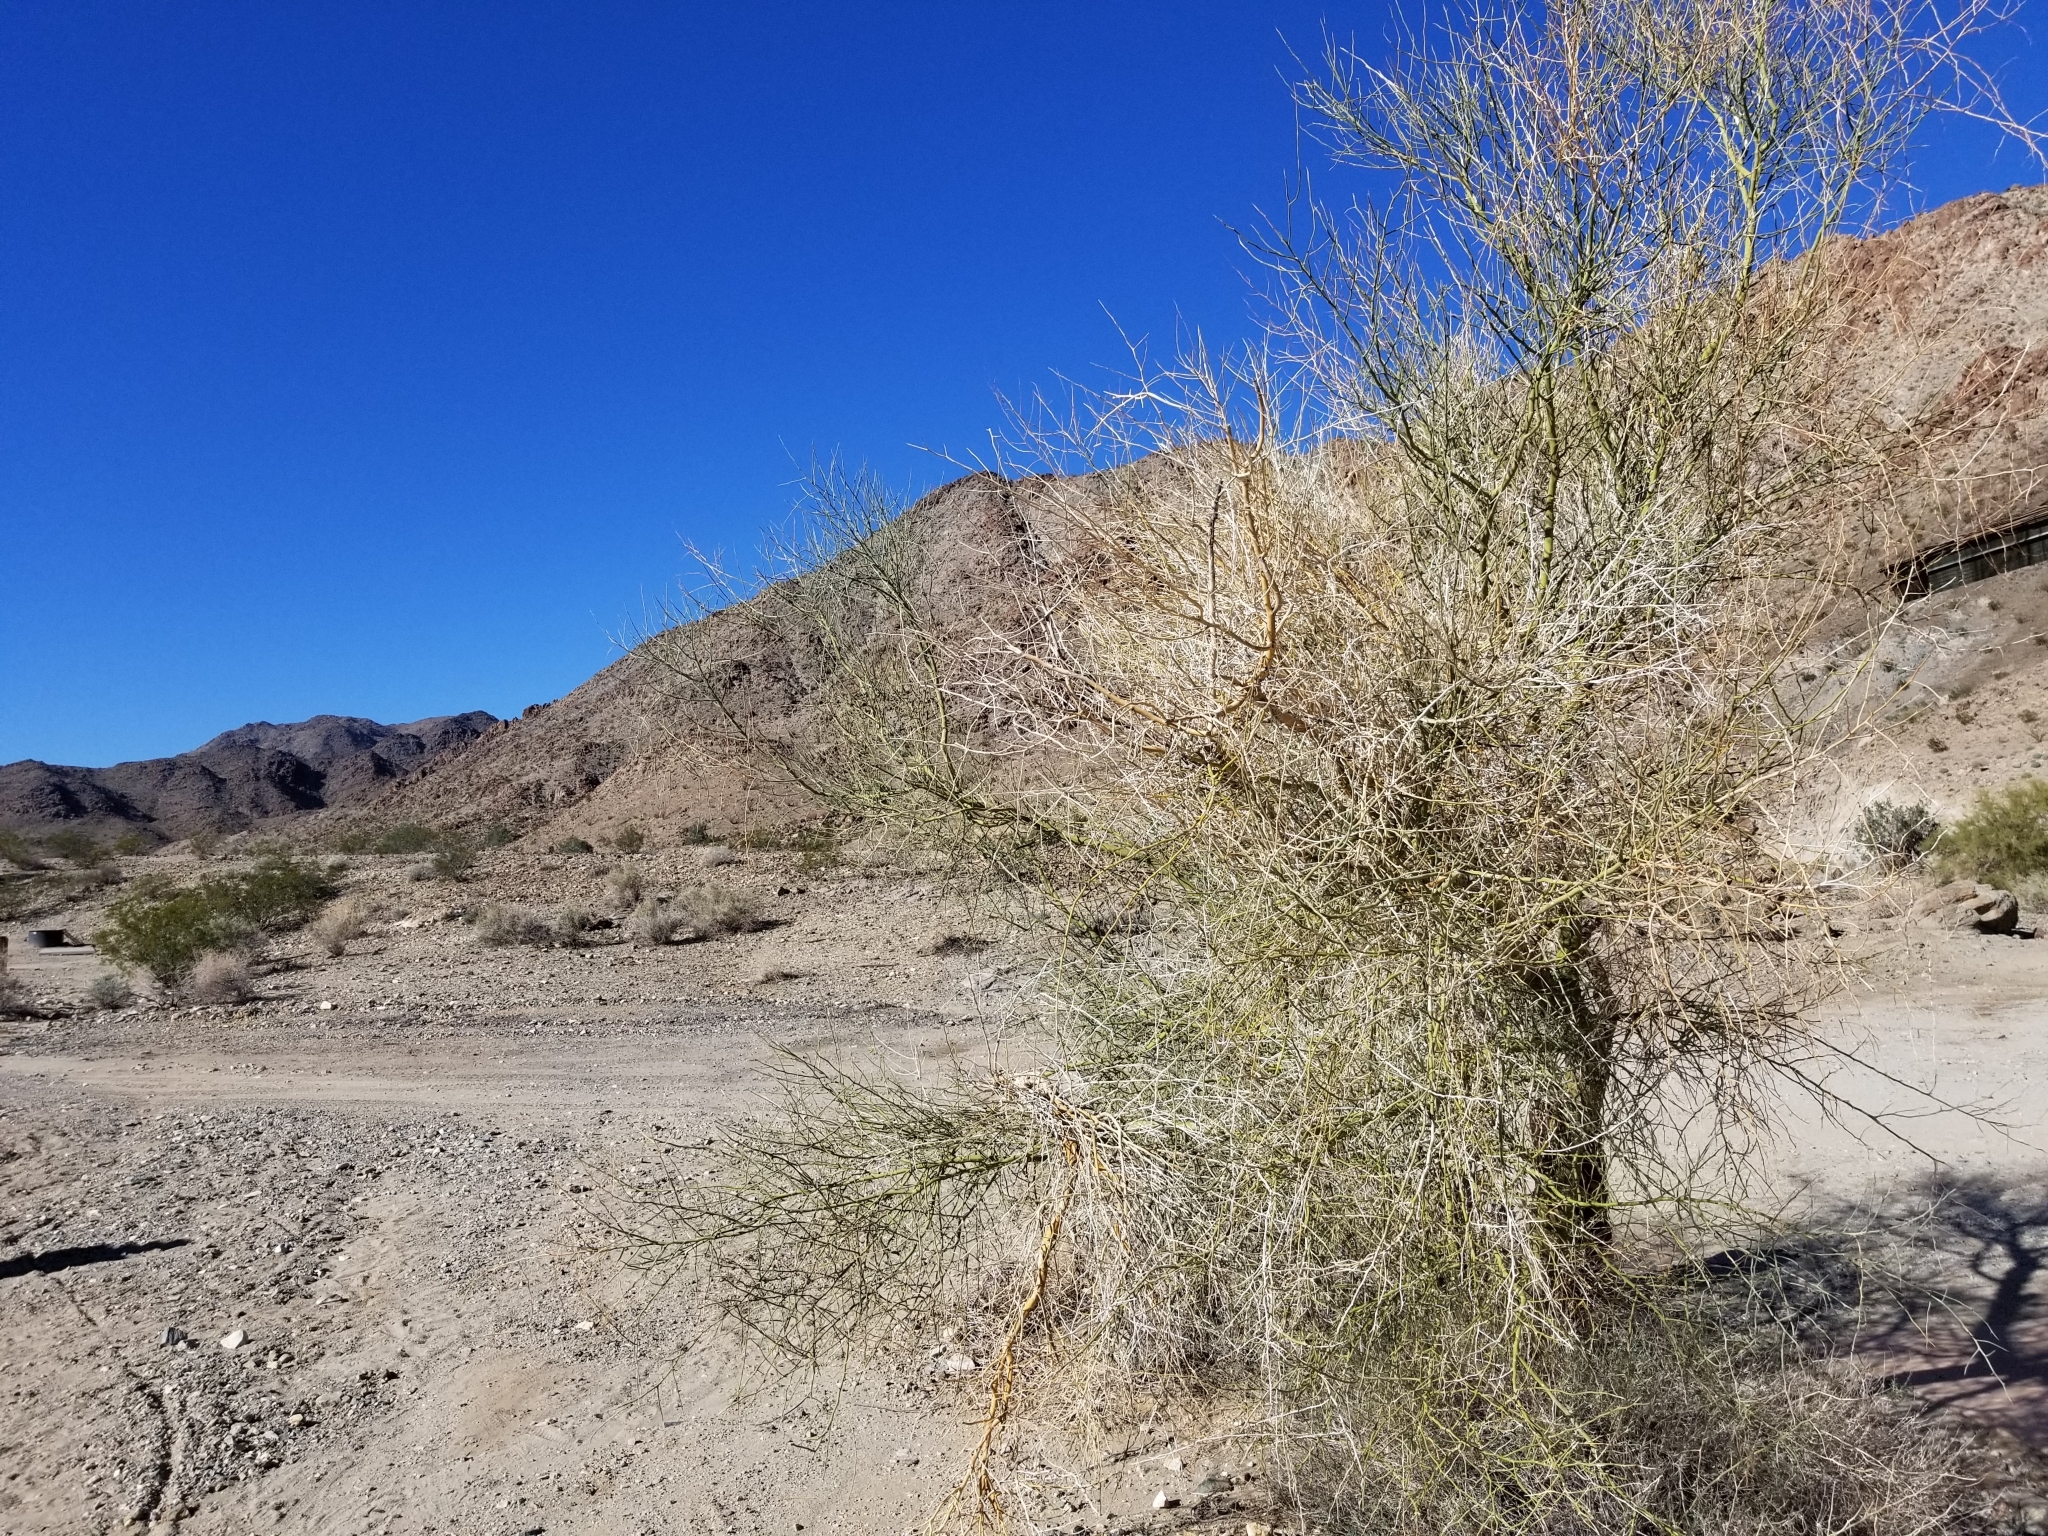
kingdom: Plantae
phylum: Tracheophyta
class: Magnoliopsida
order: Fabales
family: Fabaceae
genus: Parkinsonia
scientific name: Parkinsonia florida
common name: Blue paloverde
